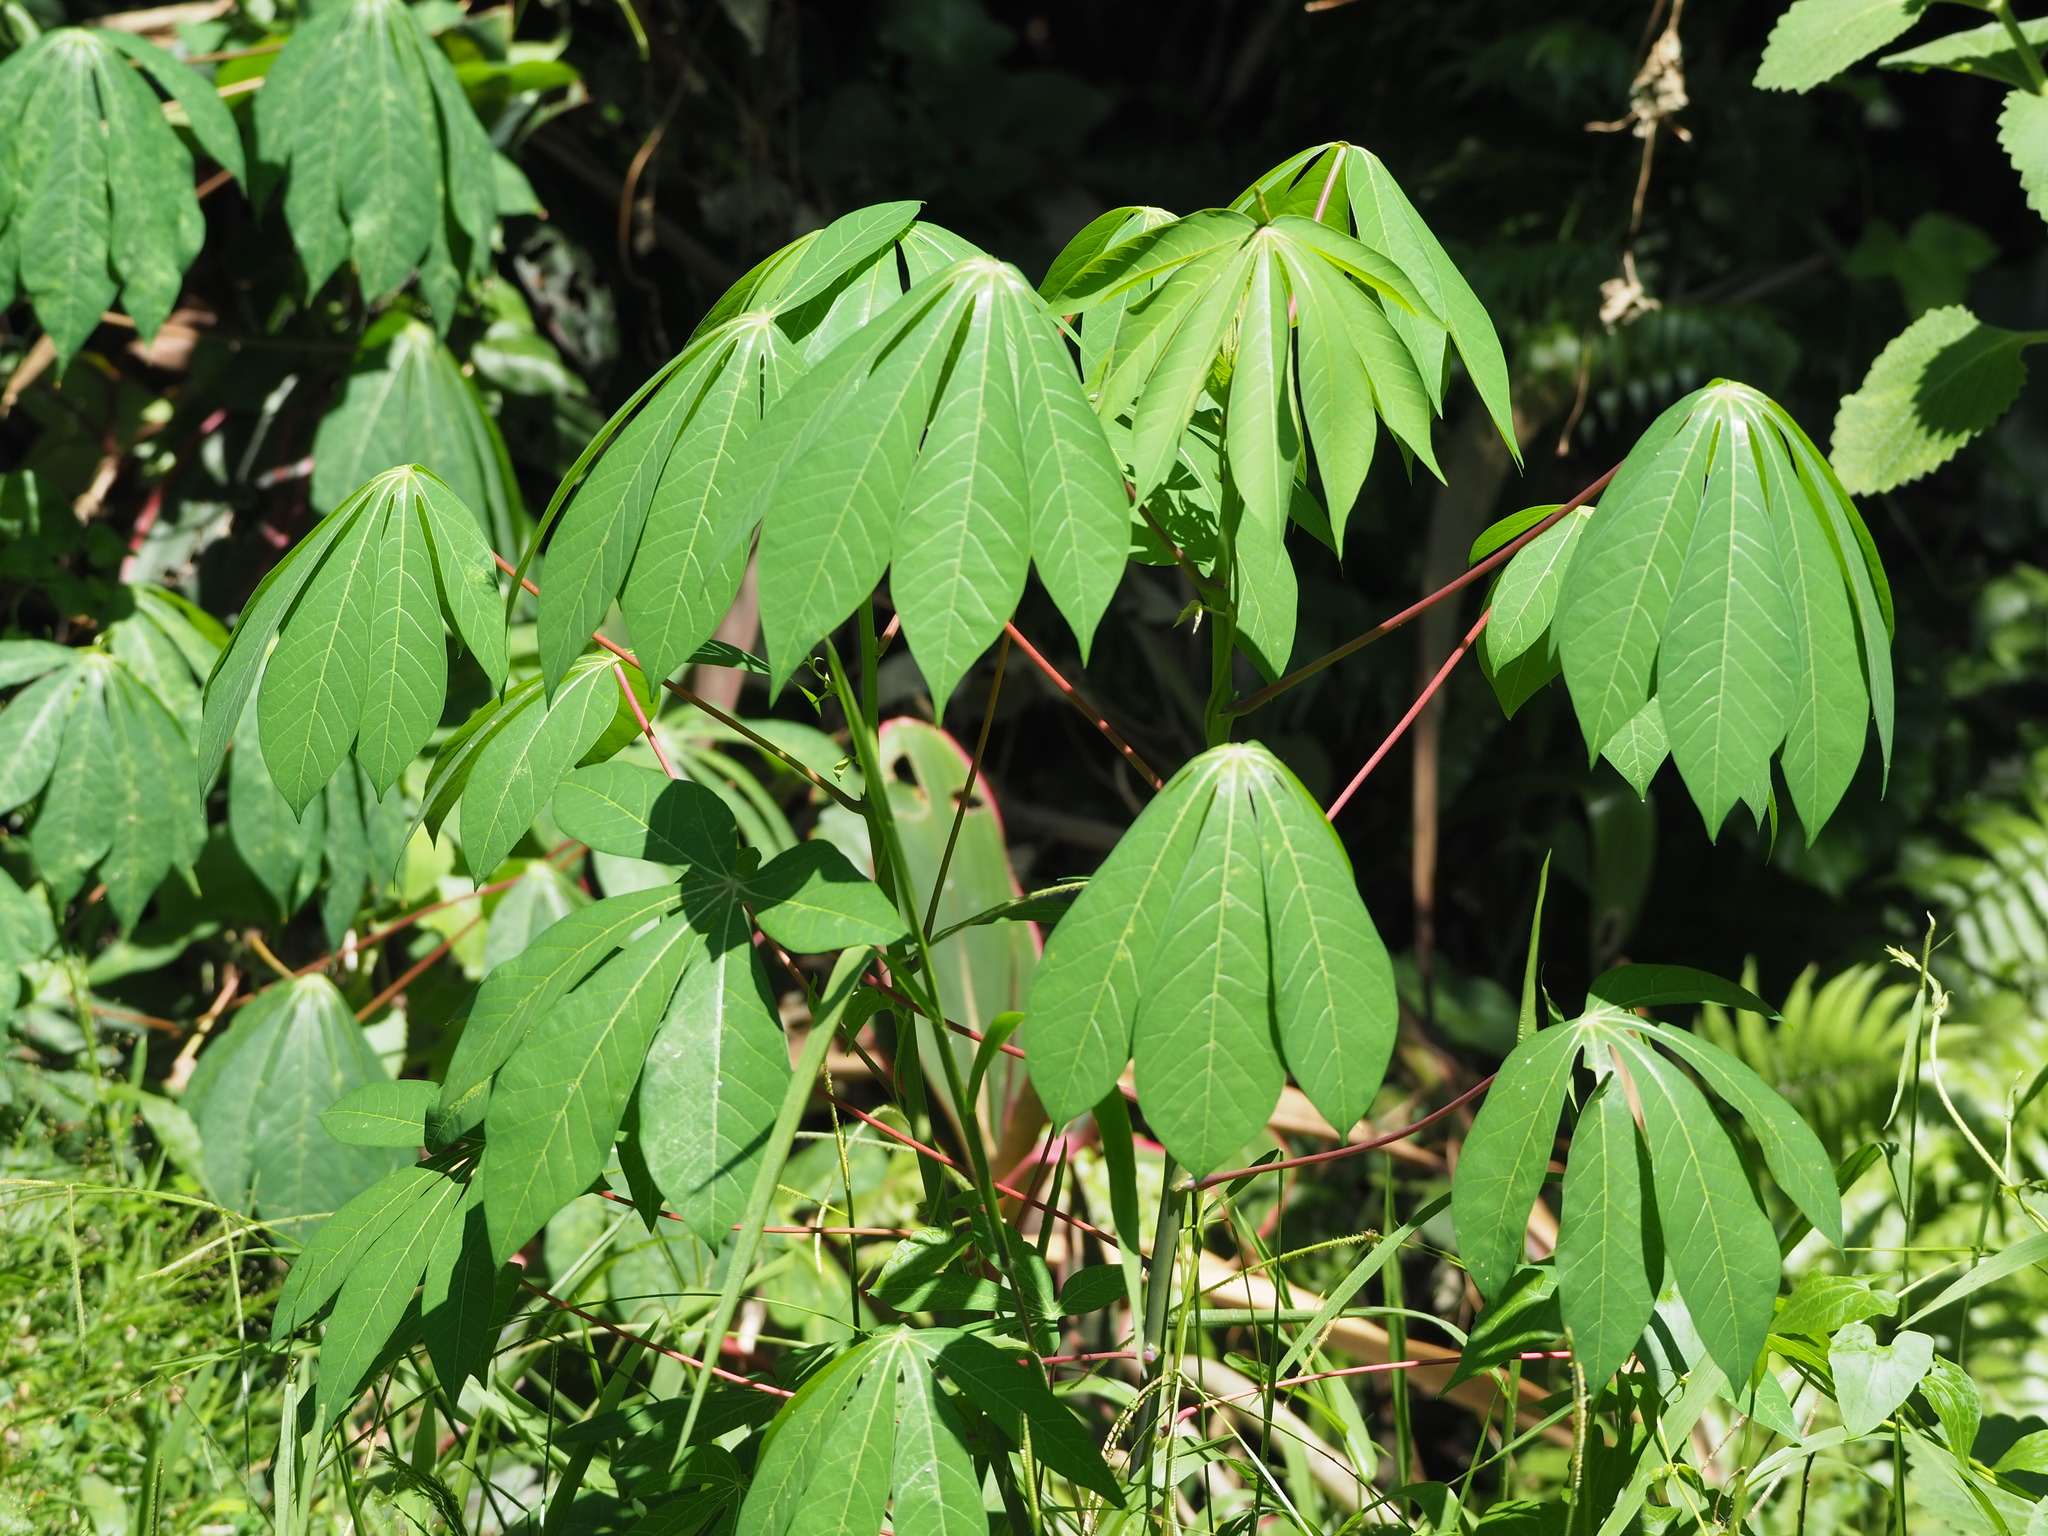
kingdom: Plantae
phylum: Tracheophyta
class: Magnoliopsida
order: Malpighiales
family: Euphorbiaceae
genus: Manihot
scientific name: Manihot esculenta
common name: Cassava
